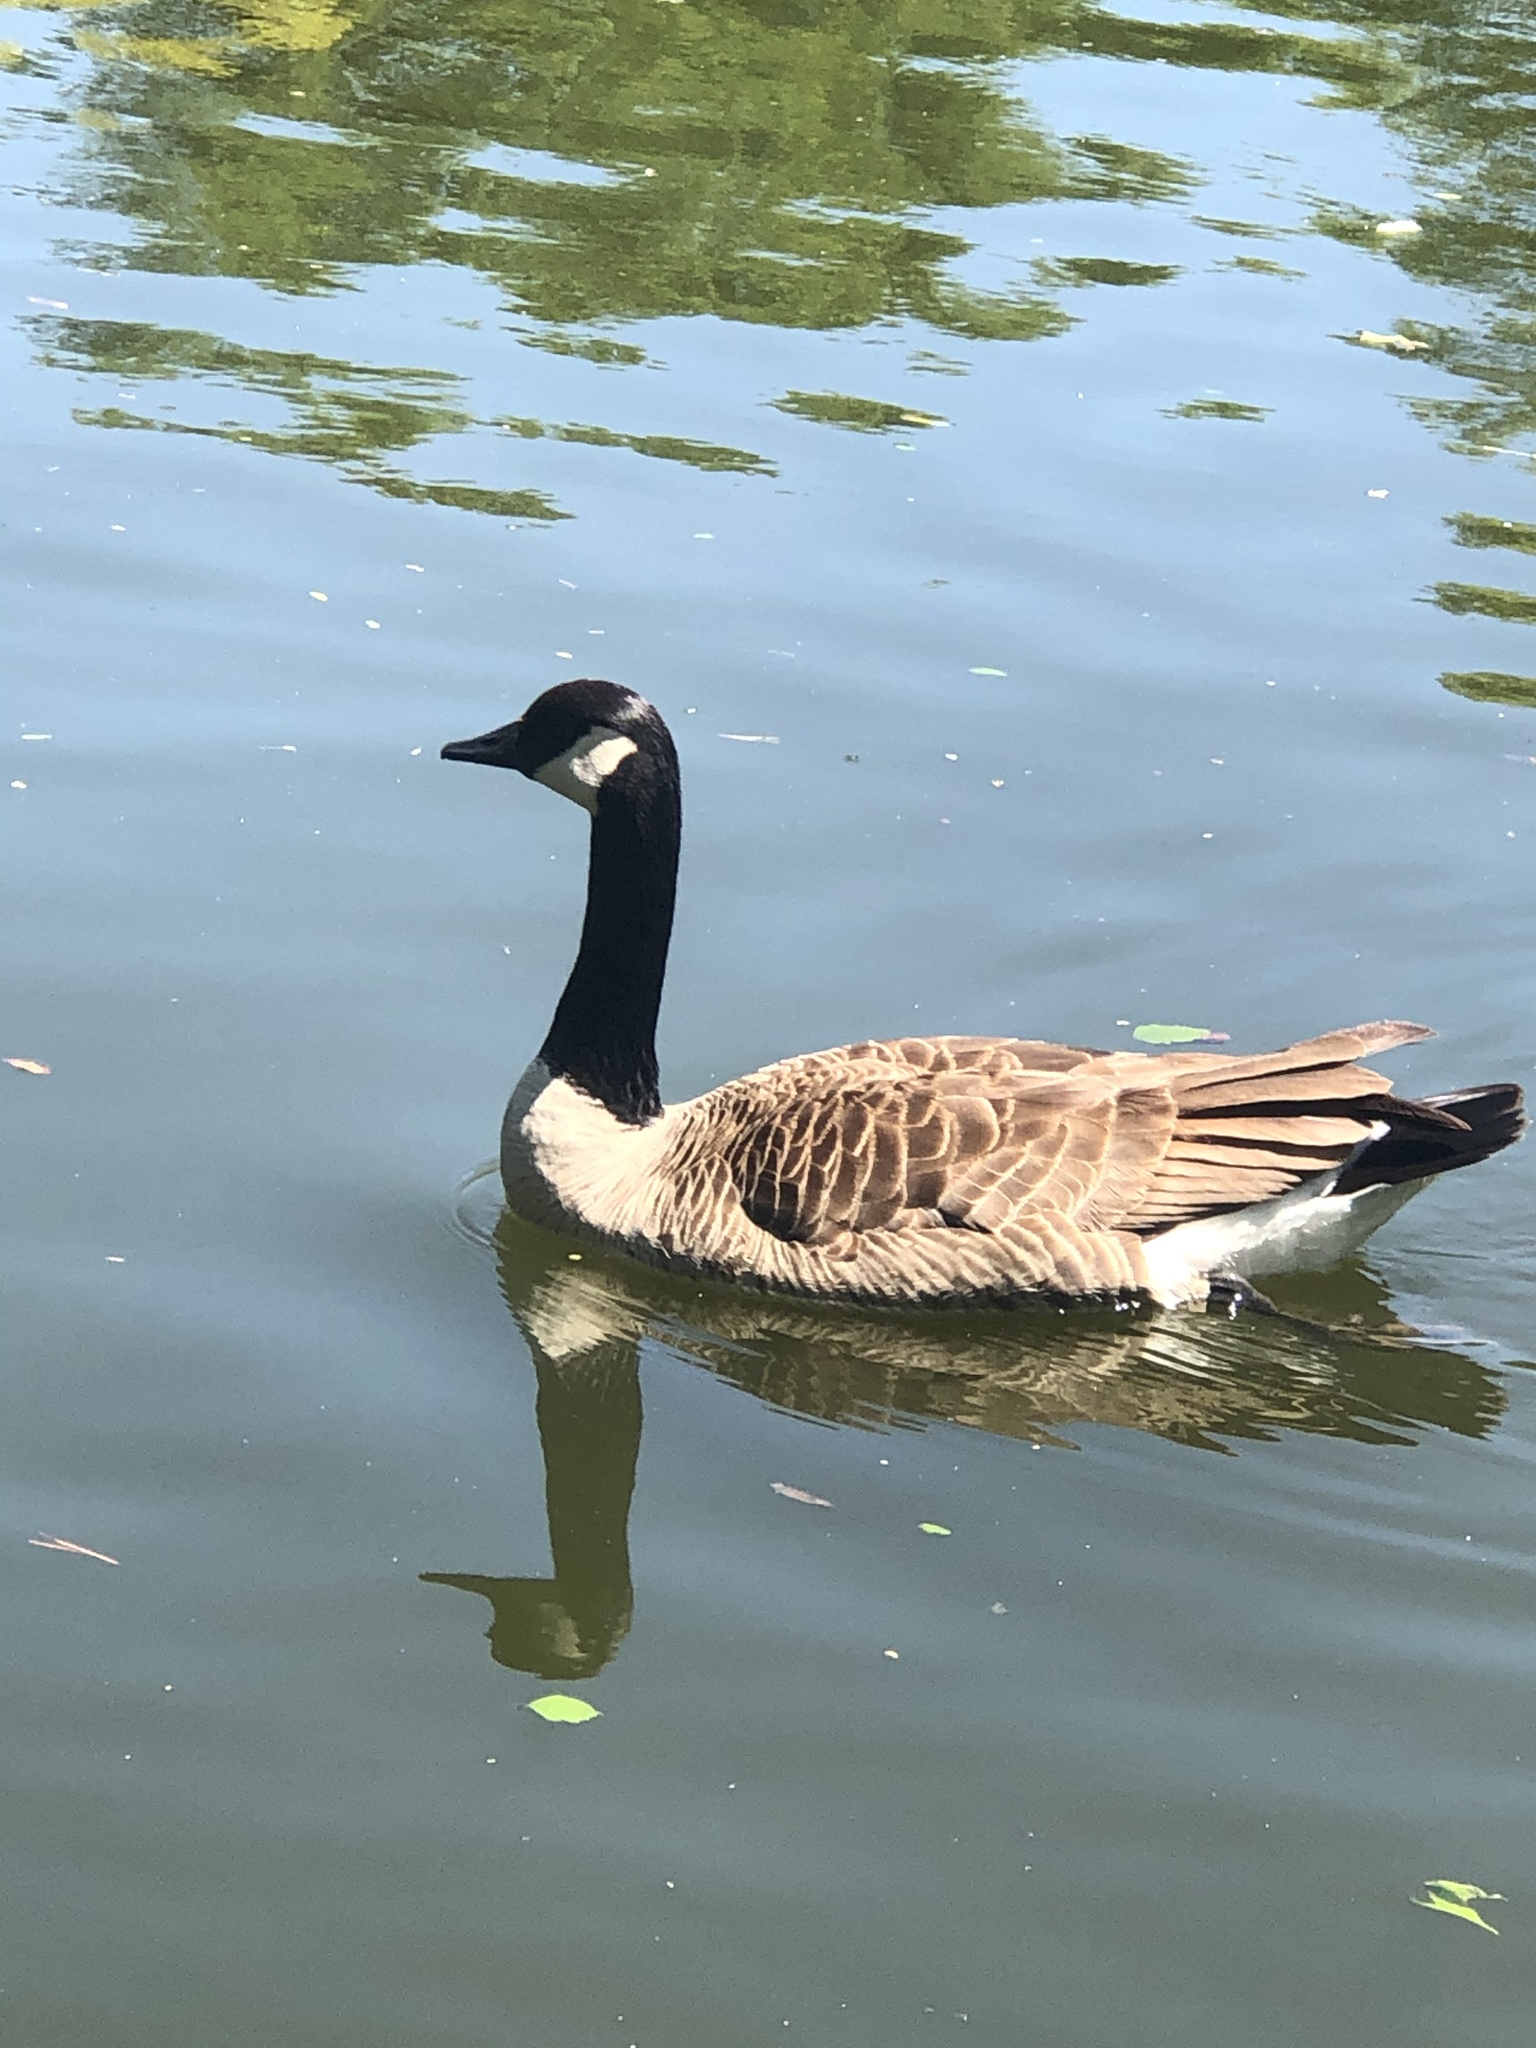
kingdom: Animalia
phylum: Chordata
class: Aves
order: Anseriformes
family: Anatidae
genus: Branta
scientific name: Branta canadensis
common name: Canada goose
